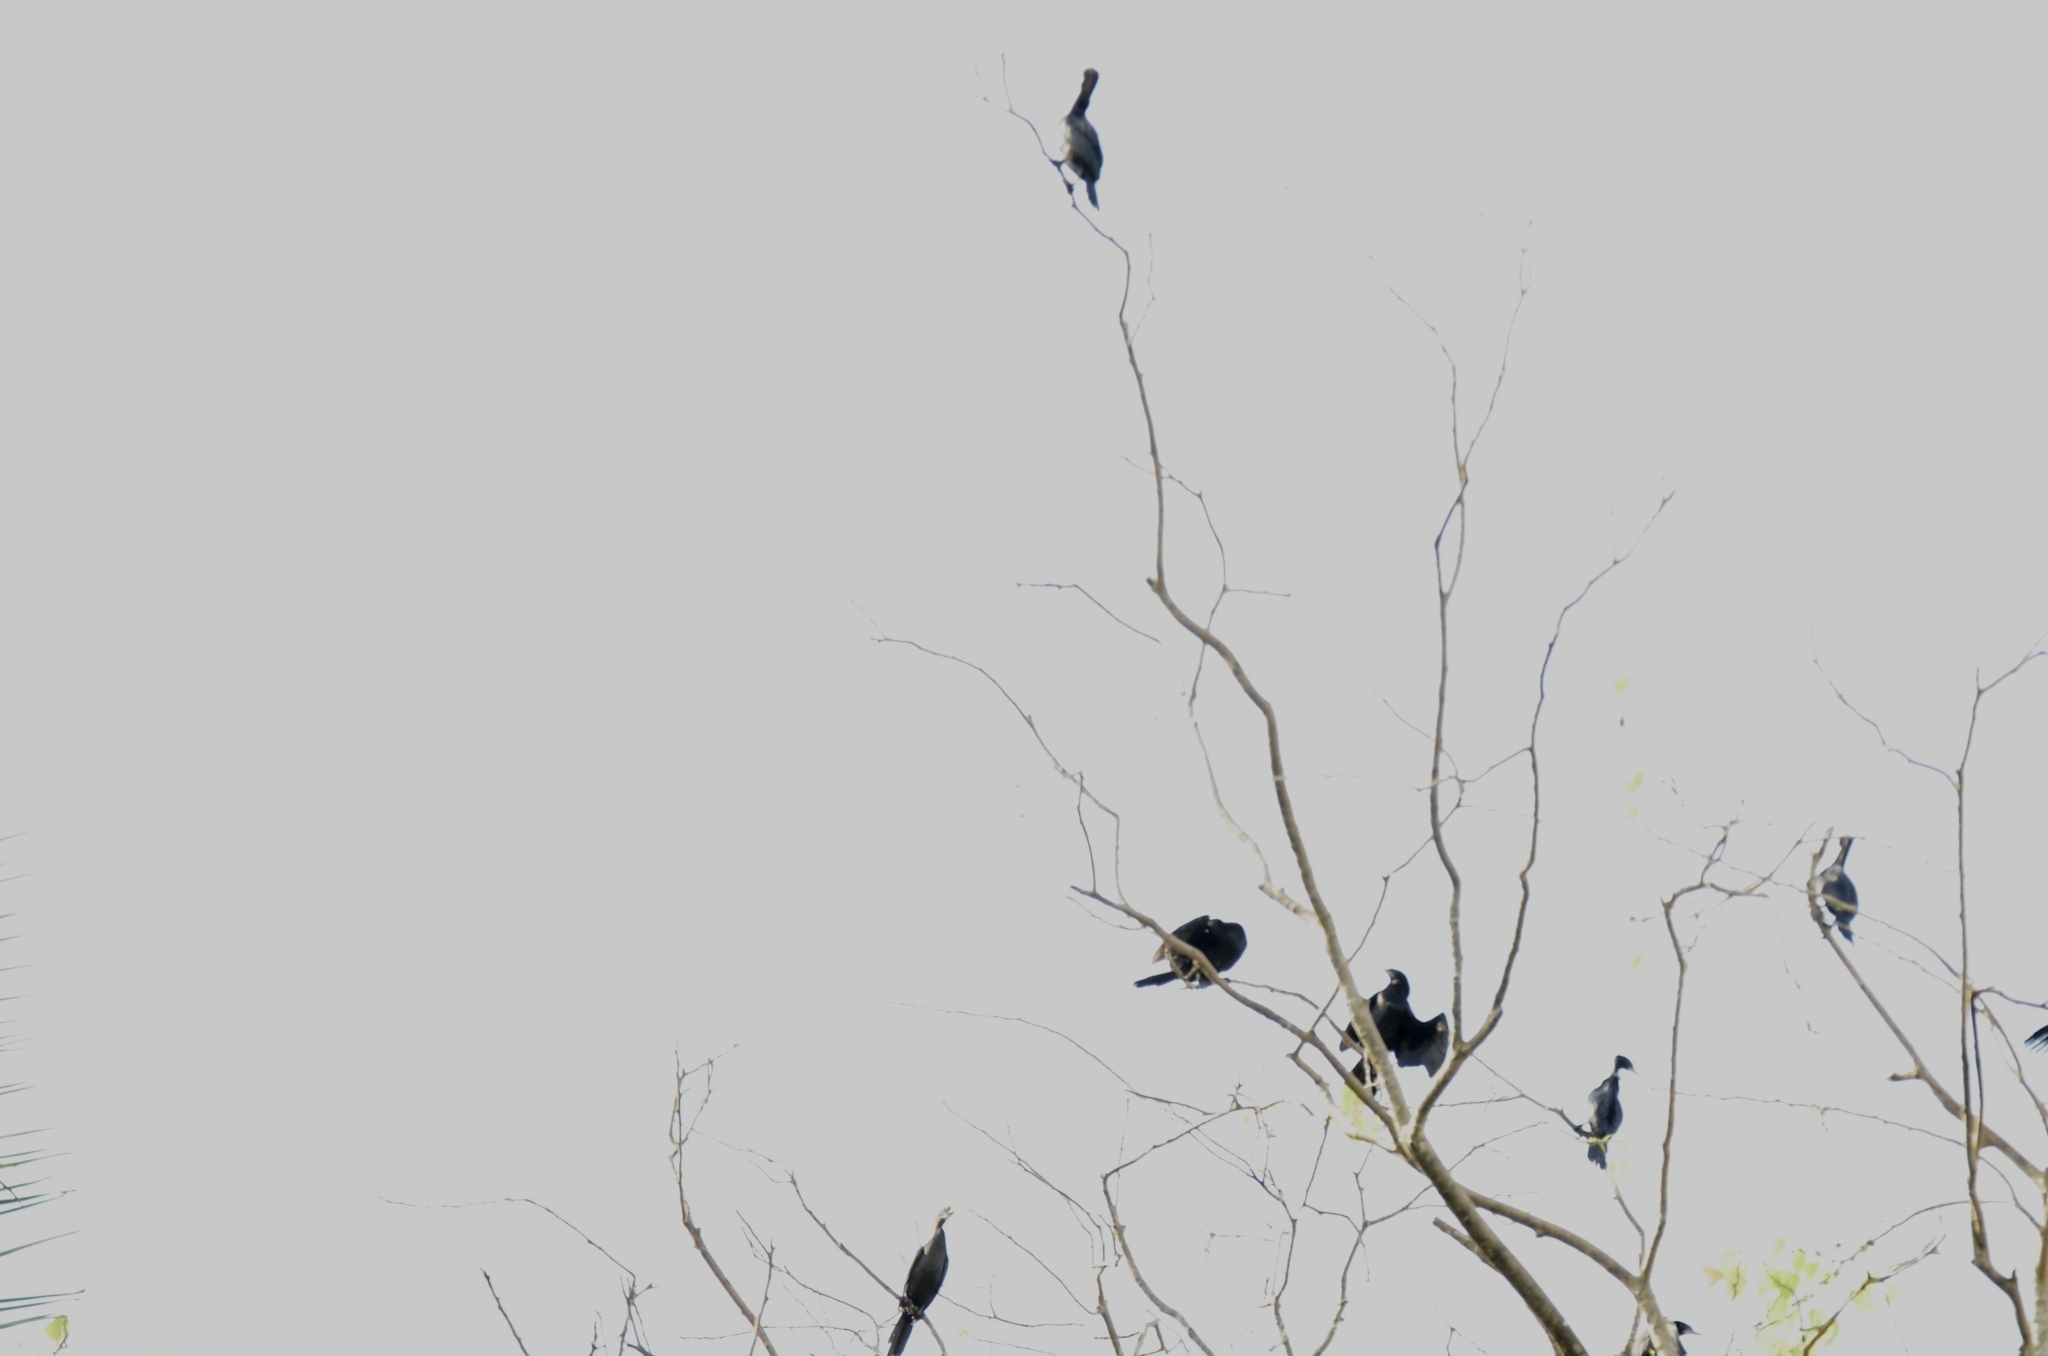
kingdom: Animalia
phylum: Chordata
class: Aves
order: Suliformes
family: Phalacrocoracidae
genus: Microcarbo
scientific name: Microcarbo niger
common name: Little cormorant
